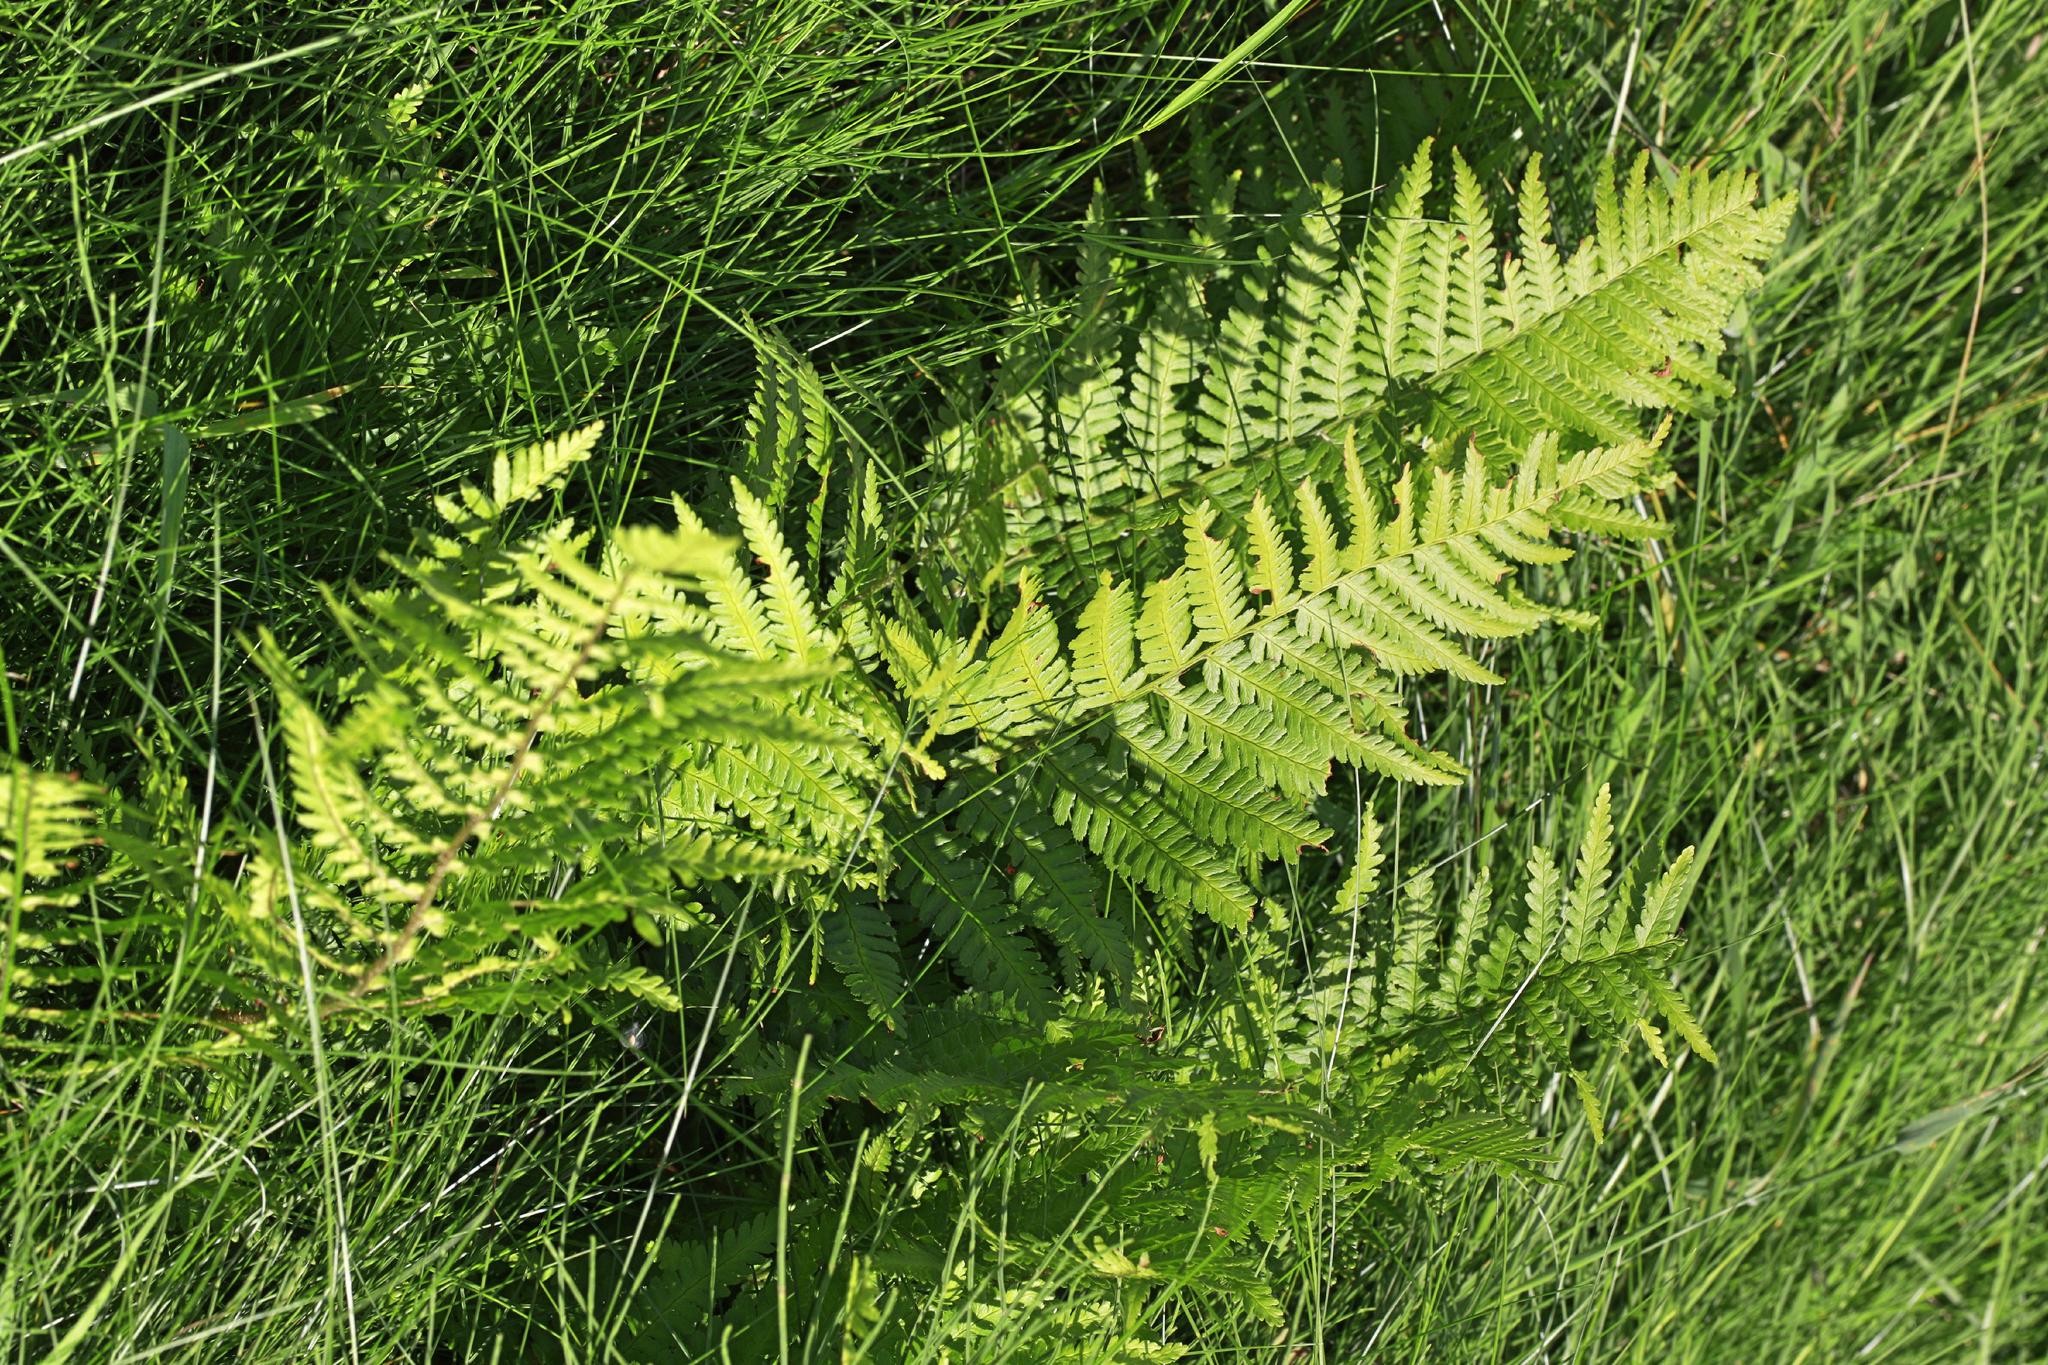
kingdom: Plantae
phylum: Tracheophyta
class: Polypodiopsida
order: Polypodiales
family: Dryopteridaceae
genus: Dryopteris
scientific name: Dryopteris filix-mas
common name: Male fern
